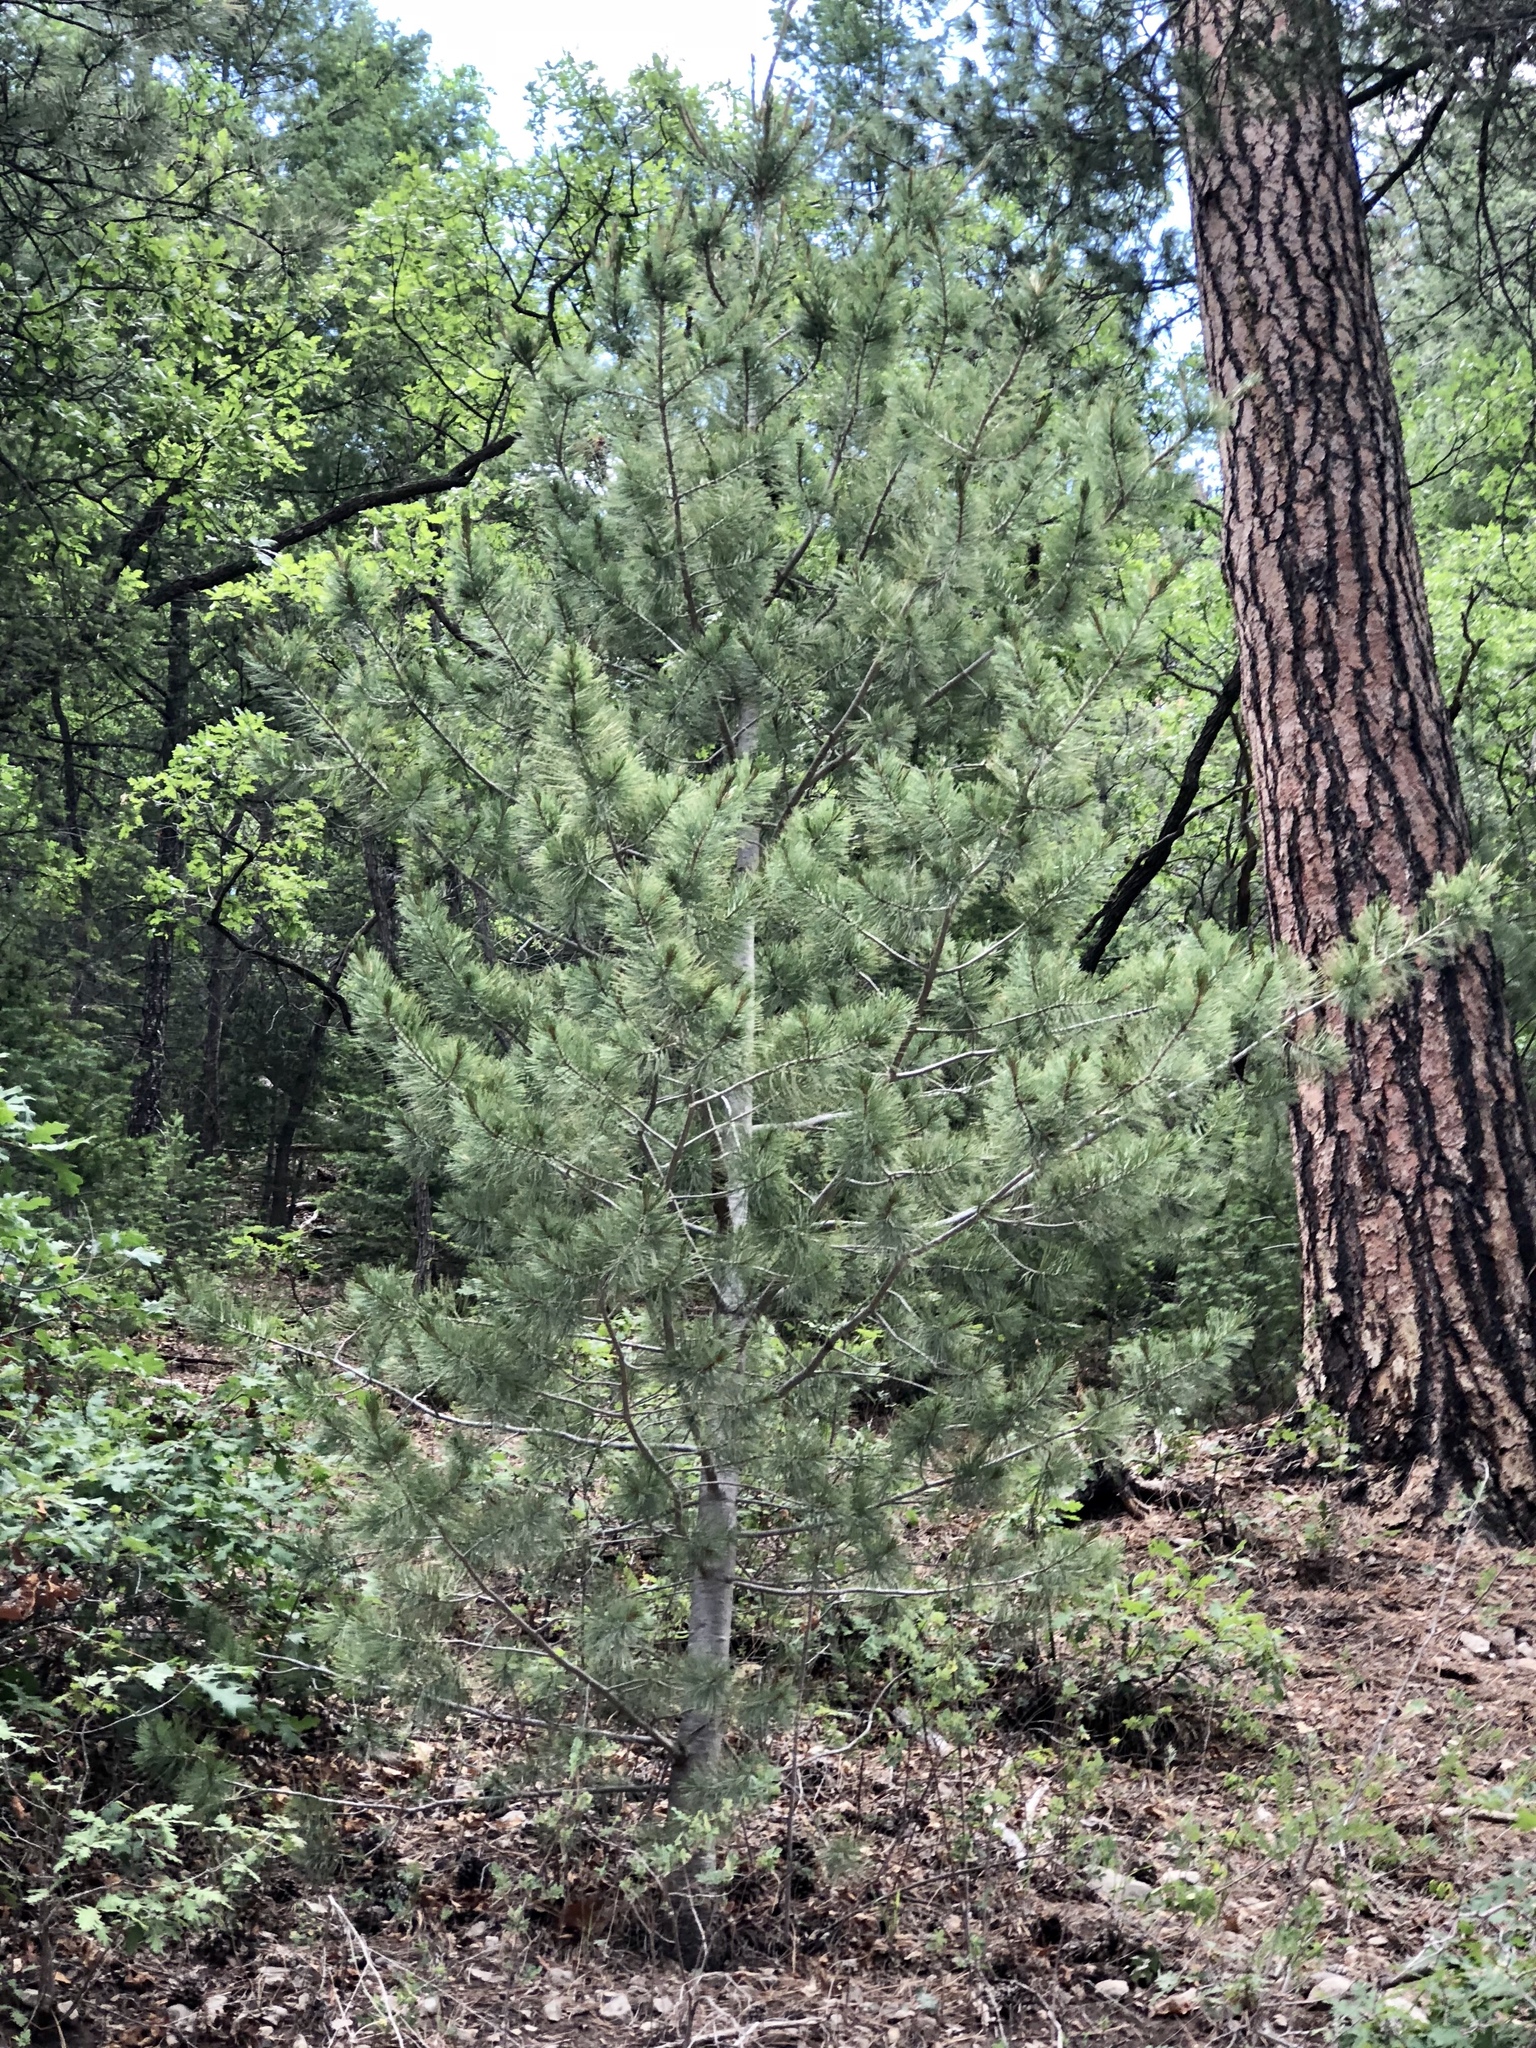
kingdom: Plantae
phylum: Tracheophyta
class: Pinopsida
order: Pinales
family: Pinaceae
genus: Pinus
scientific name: Pinus strobiformis
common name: Southwestern white pine
